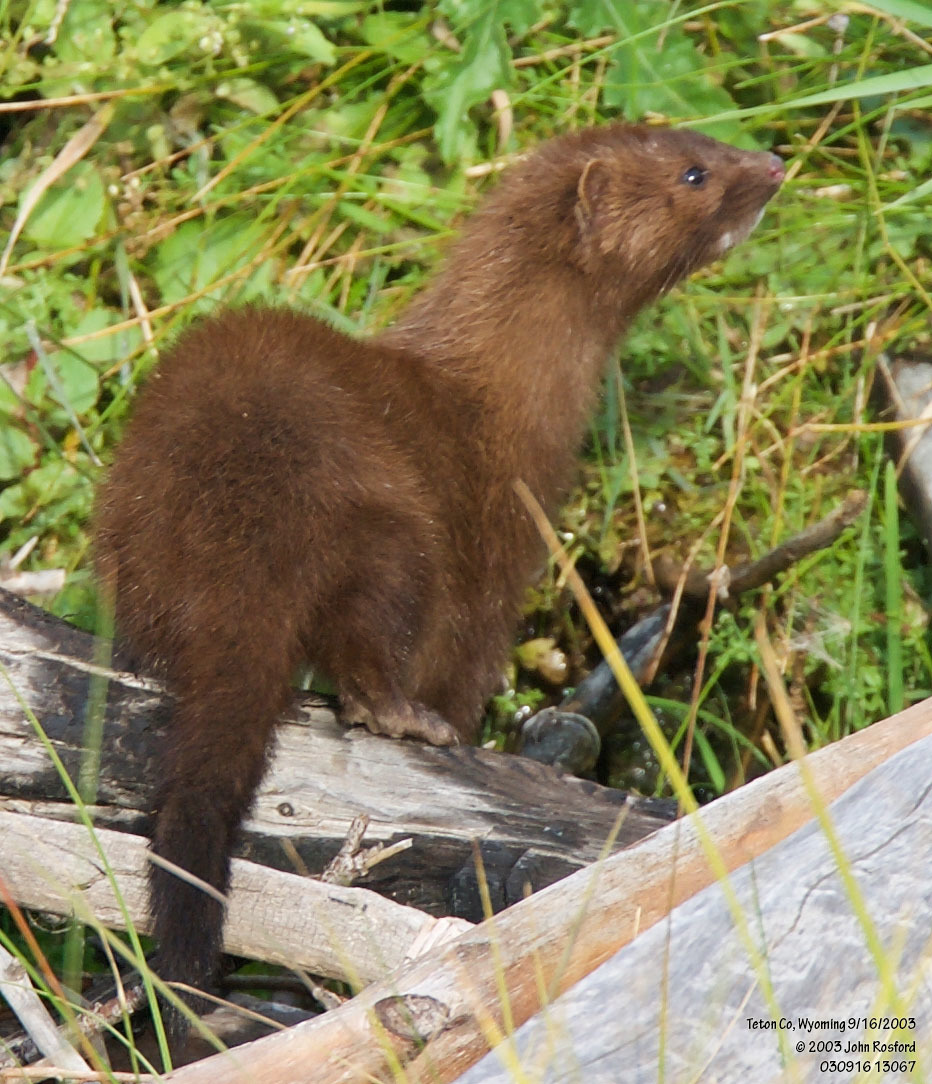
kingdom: Animalia
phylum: Chordata
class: Mammalia
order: Carnivora
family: Mustelidae
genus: Mustela
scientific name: Mustela
